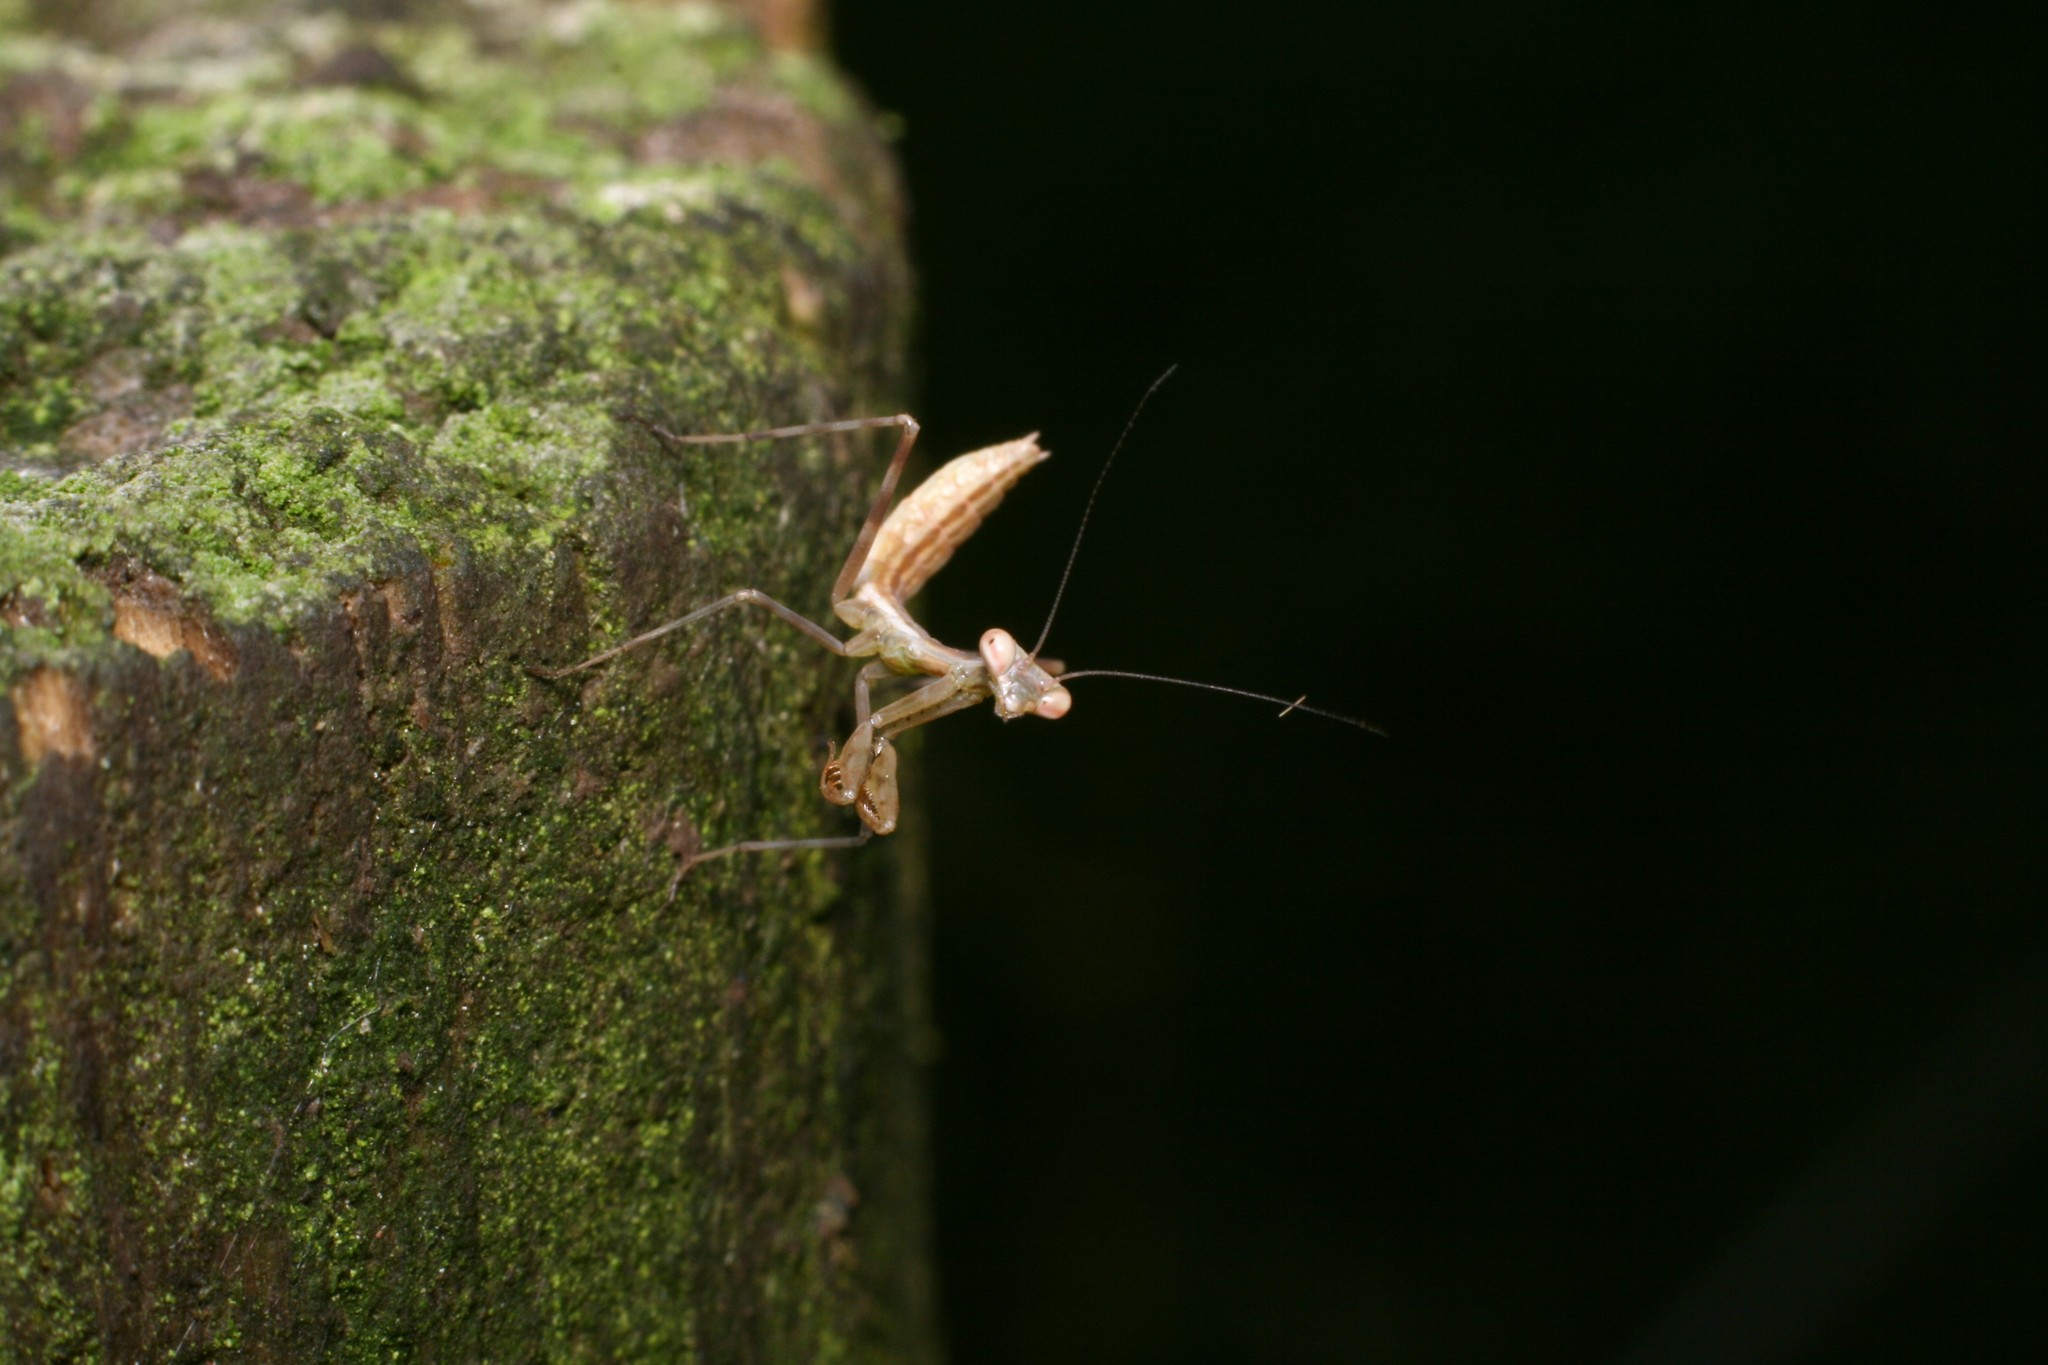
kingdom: Animalia
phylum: Arthropoda
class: Insecta
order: Mantodea
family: Miomantidae
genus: Miomantis
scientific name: Miomantis caffra
